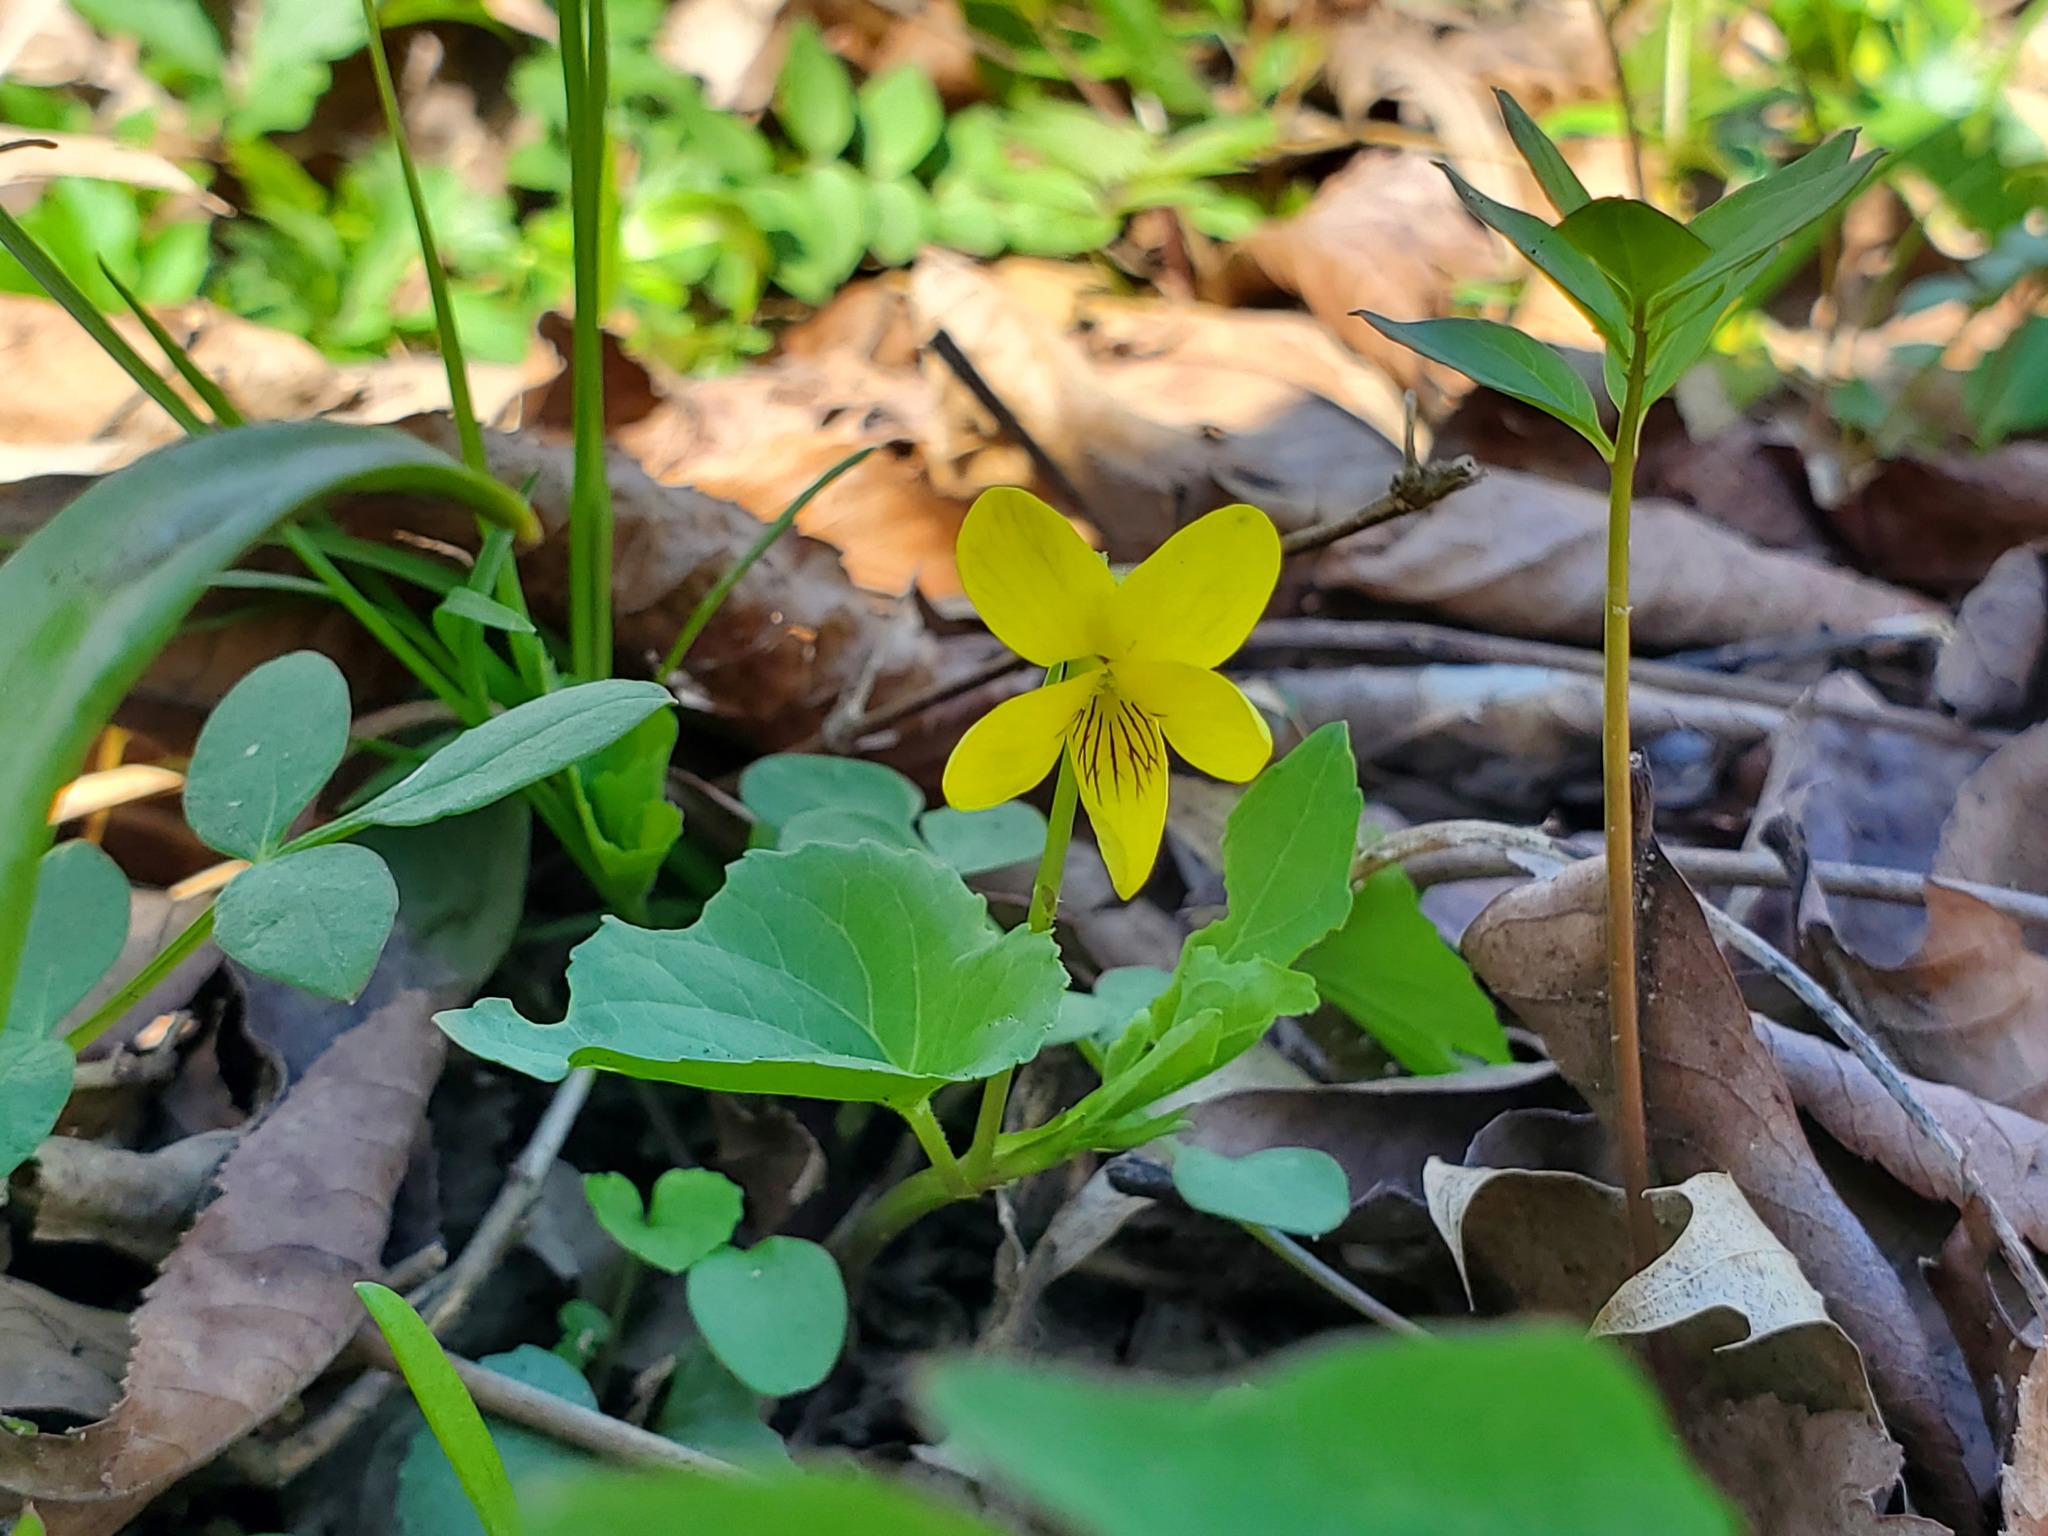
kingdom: Plantae
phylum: Tracheophyta
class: Magnoliopsida
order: Malpighiales
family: Violaceae
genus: Viola
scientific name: Viola eriocarpa
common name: Smooth yellow violet
